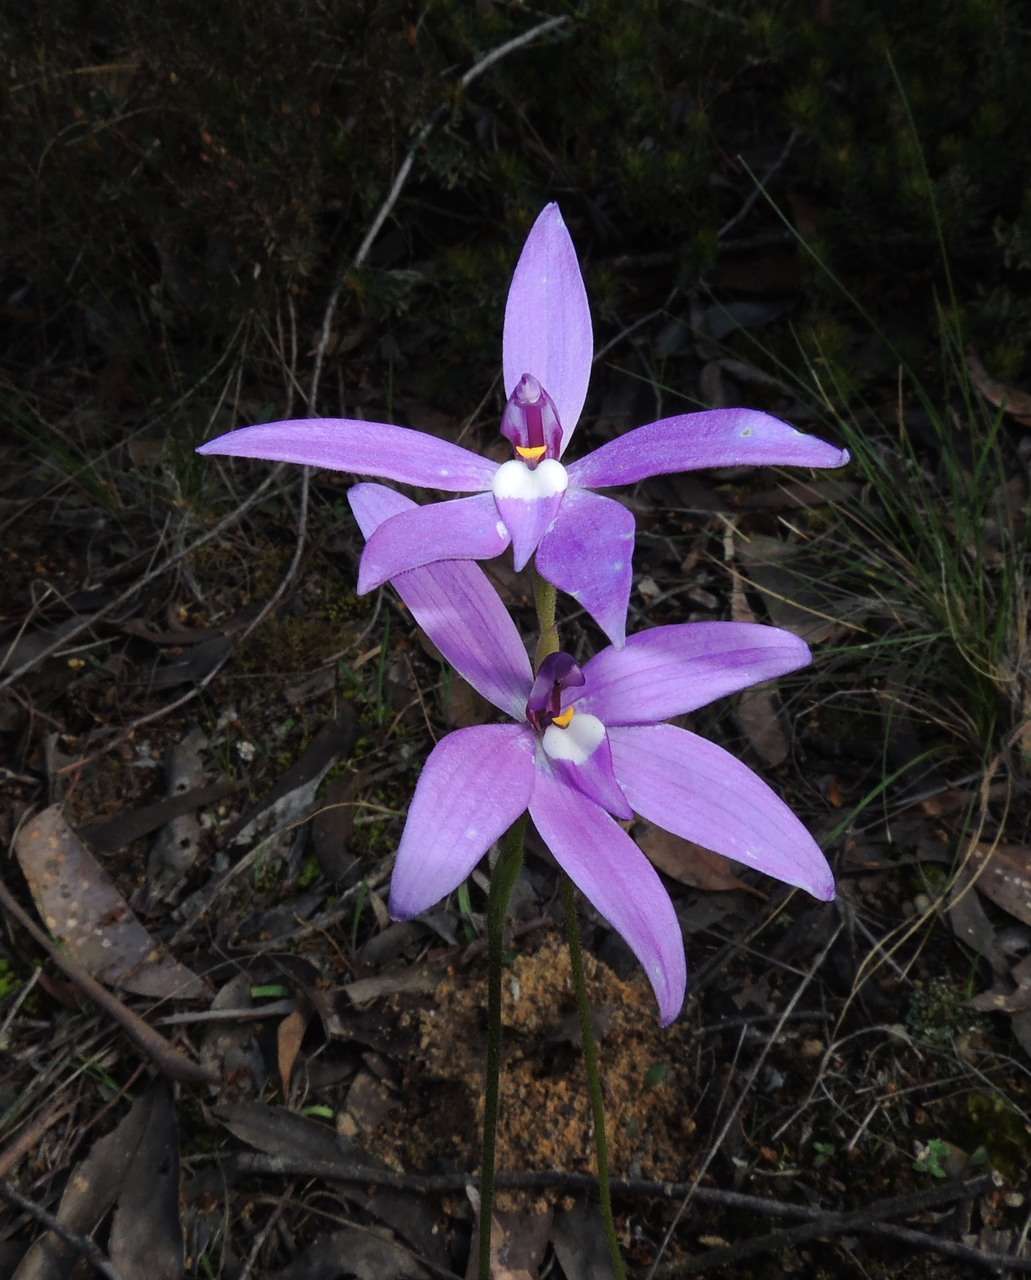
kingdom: Plantae
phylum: Tracheophyta
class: Liliopsida
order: Asparagales
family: Orchidaceae
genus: Caladenia
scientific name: Caladenia major
